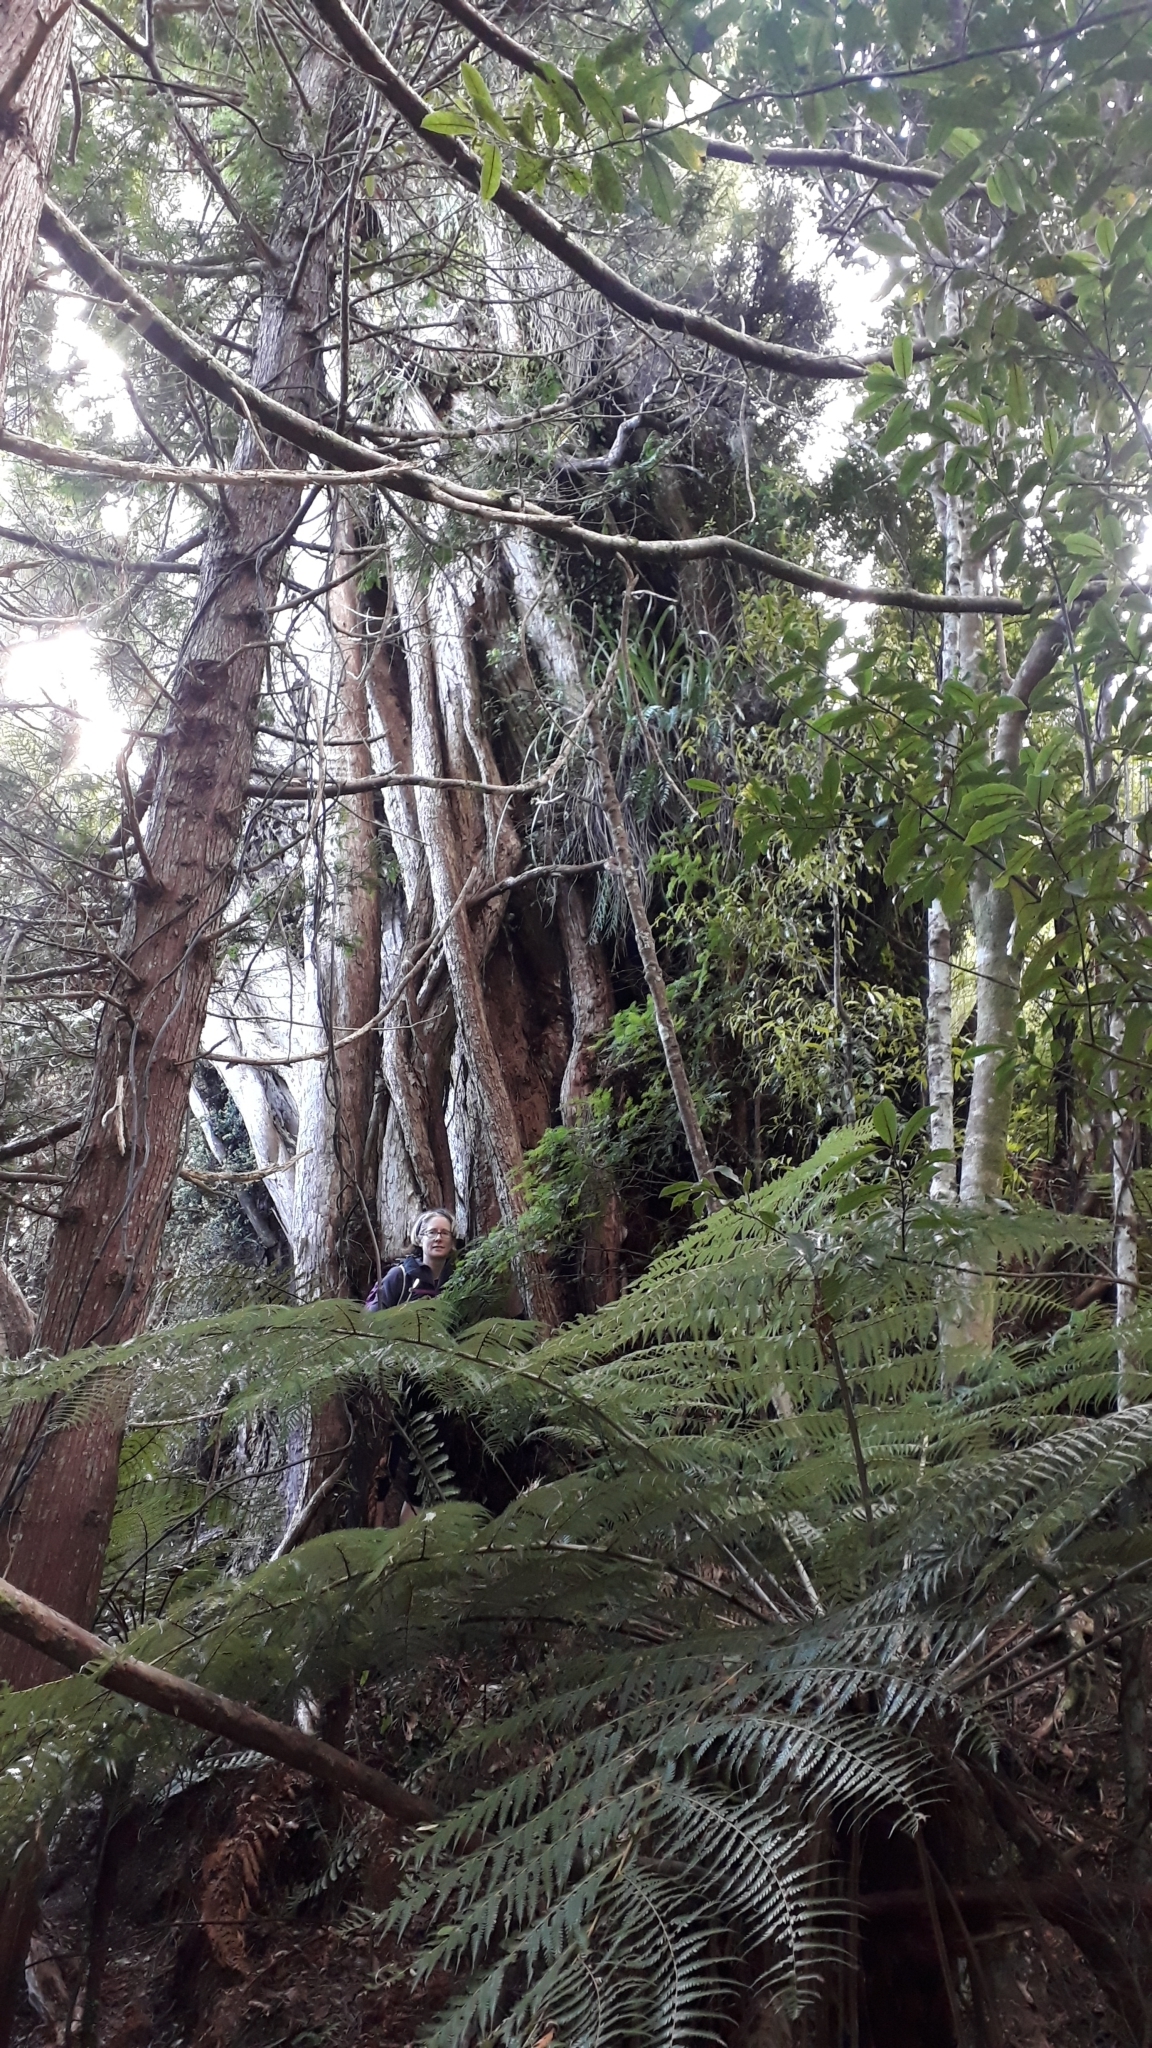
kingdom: Plantae
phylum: Tracheophyta
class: Magnoliopsida
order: Myrtales
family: Myrtaceae
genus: Metrosideros
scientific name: Metrosideros robusta
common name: Northern rata
